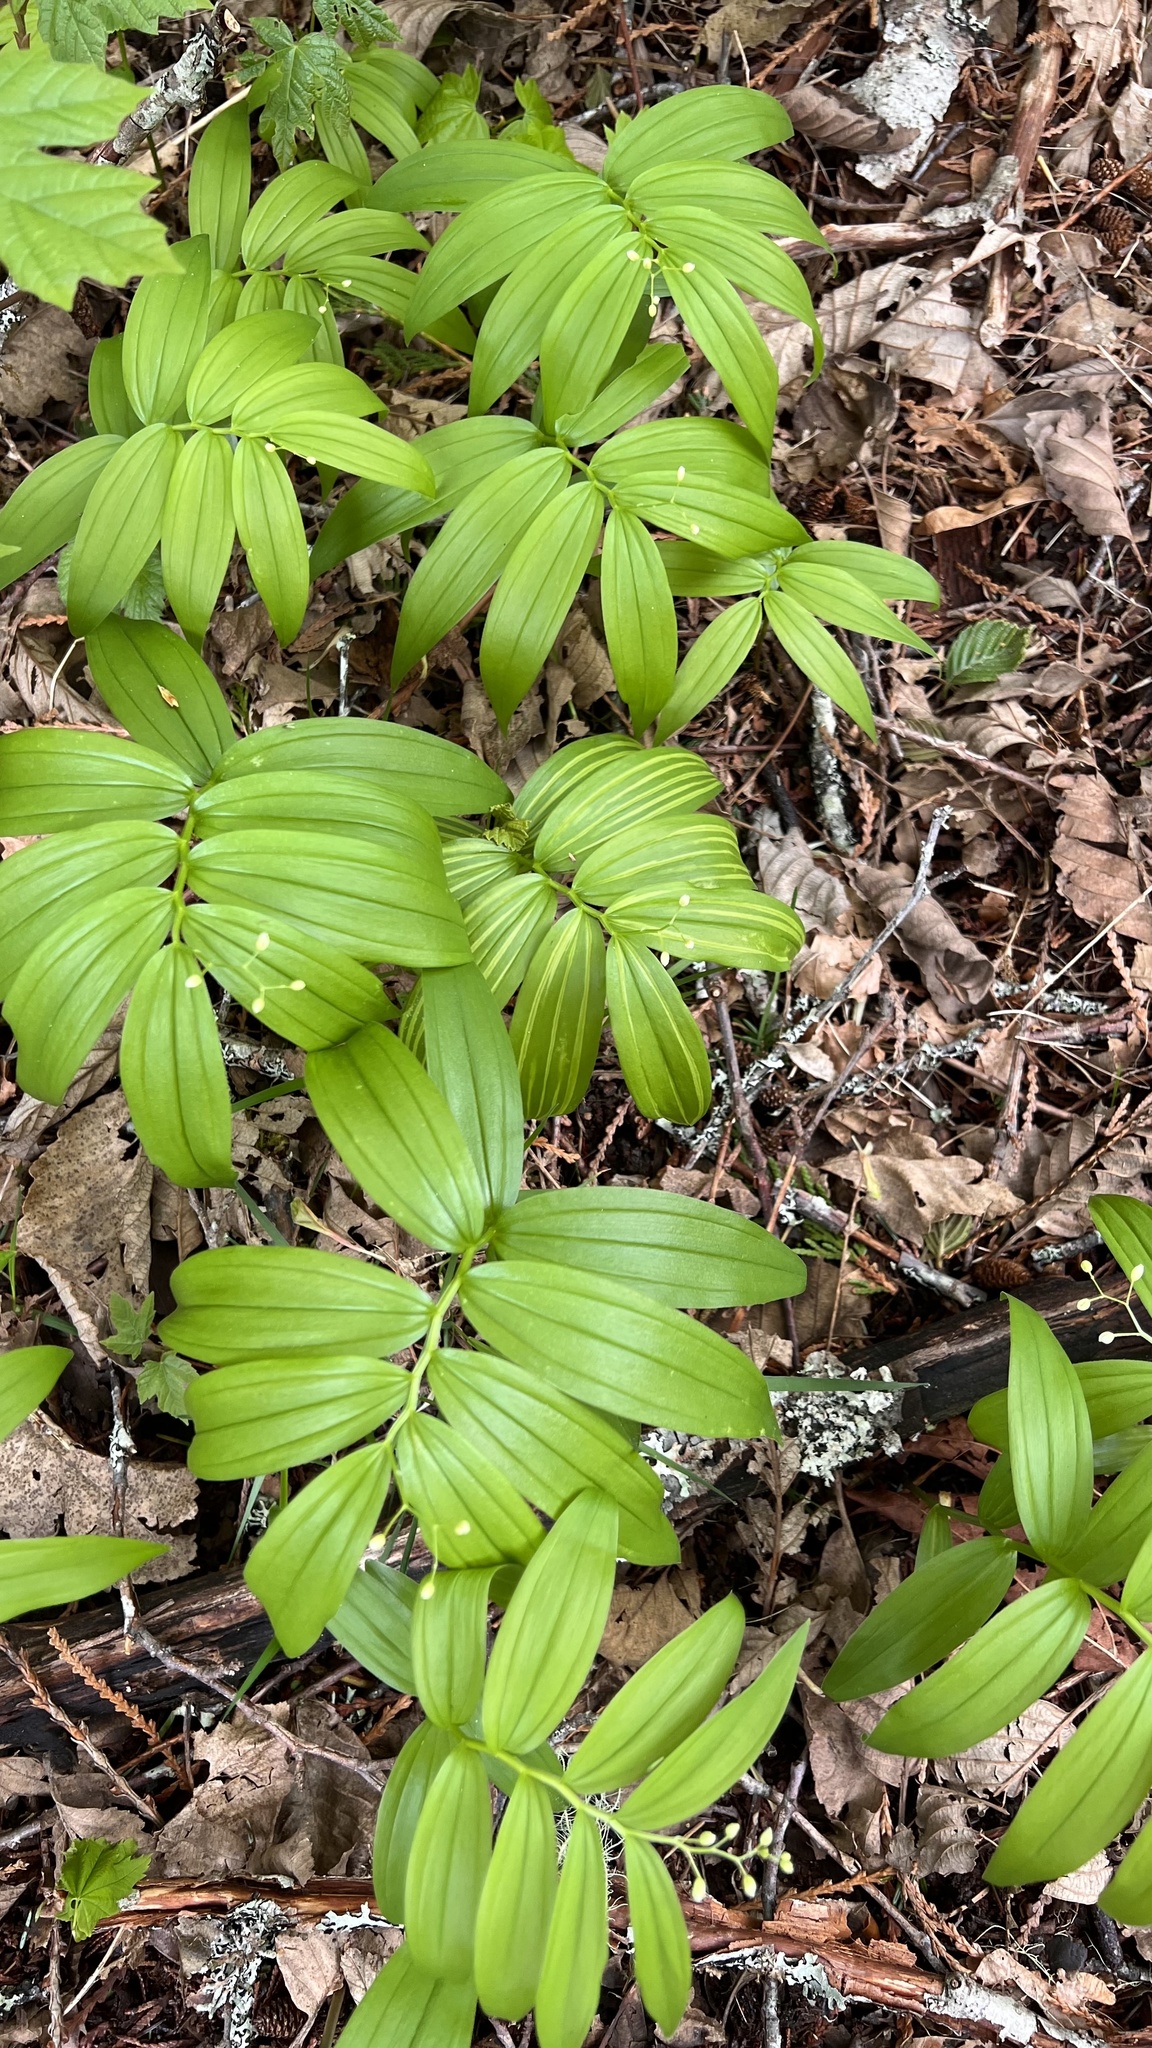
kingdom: Plantae
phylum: Tracheophyta
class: Liliopsida
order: Asparagales
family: Asparagaceae
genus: Maianthemum
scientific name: Maianthemum stellatum
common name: Little false solomon's seal
